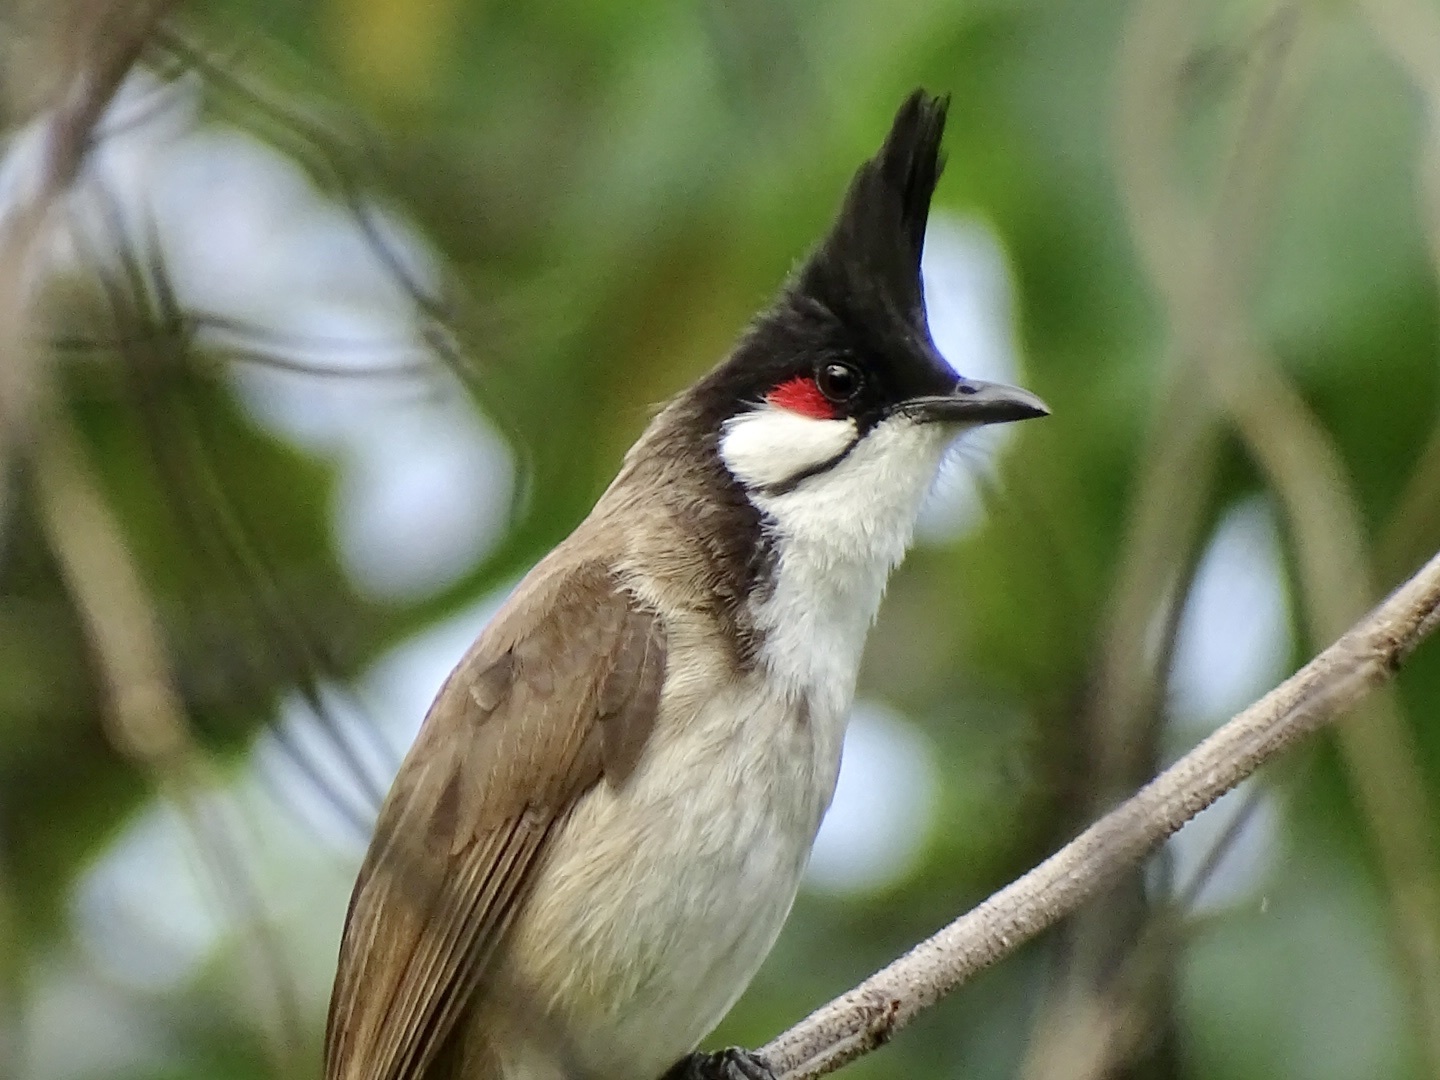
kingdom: Animalia
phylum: Chordata
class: Aves
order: Passeriformes
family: Pycnonotidae
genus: Pycnonotus
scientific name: Pycnonotus jocosus
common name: Red-whiskered bulbul
